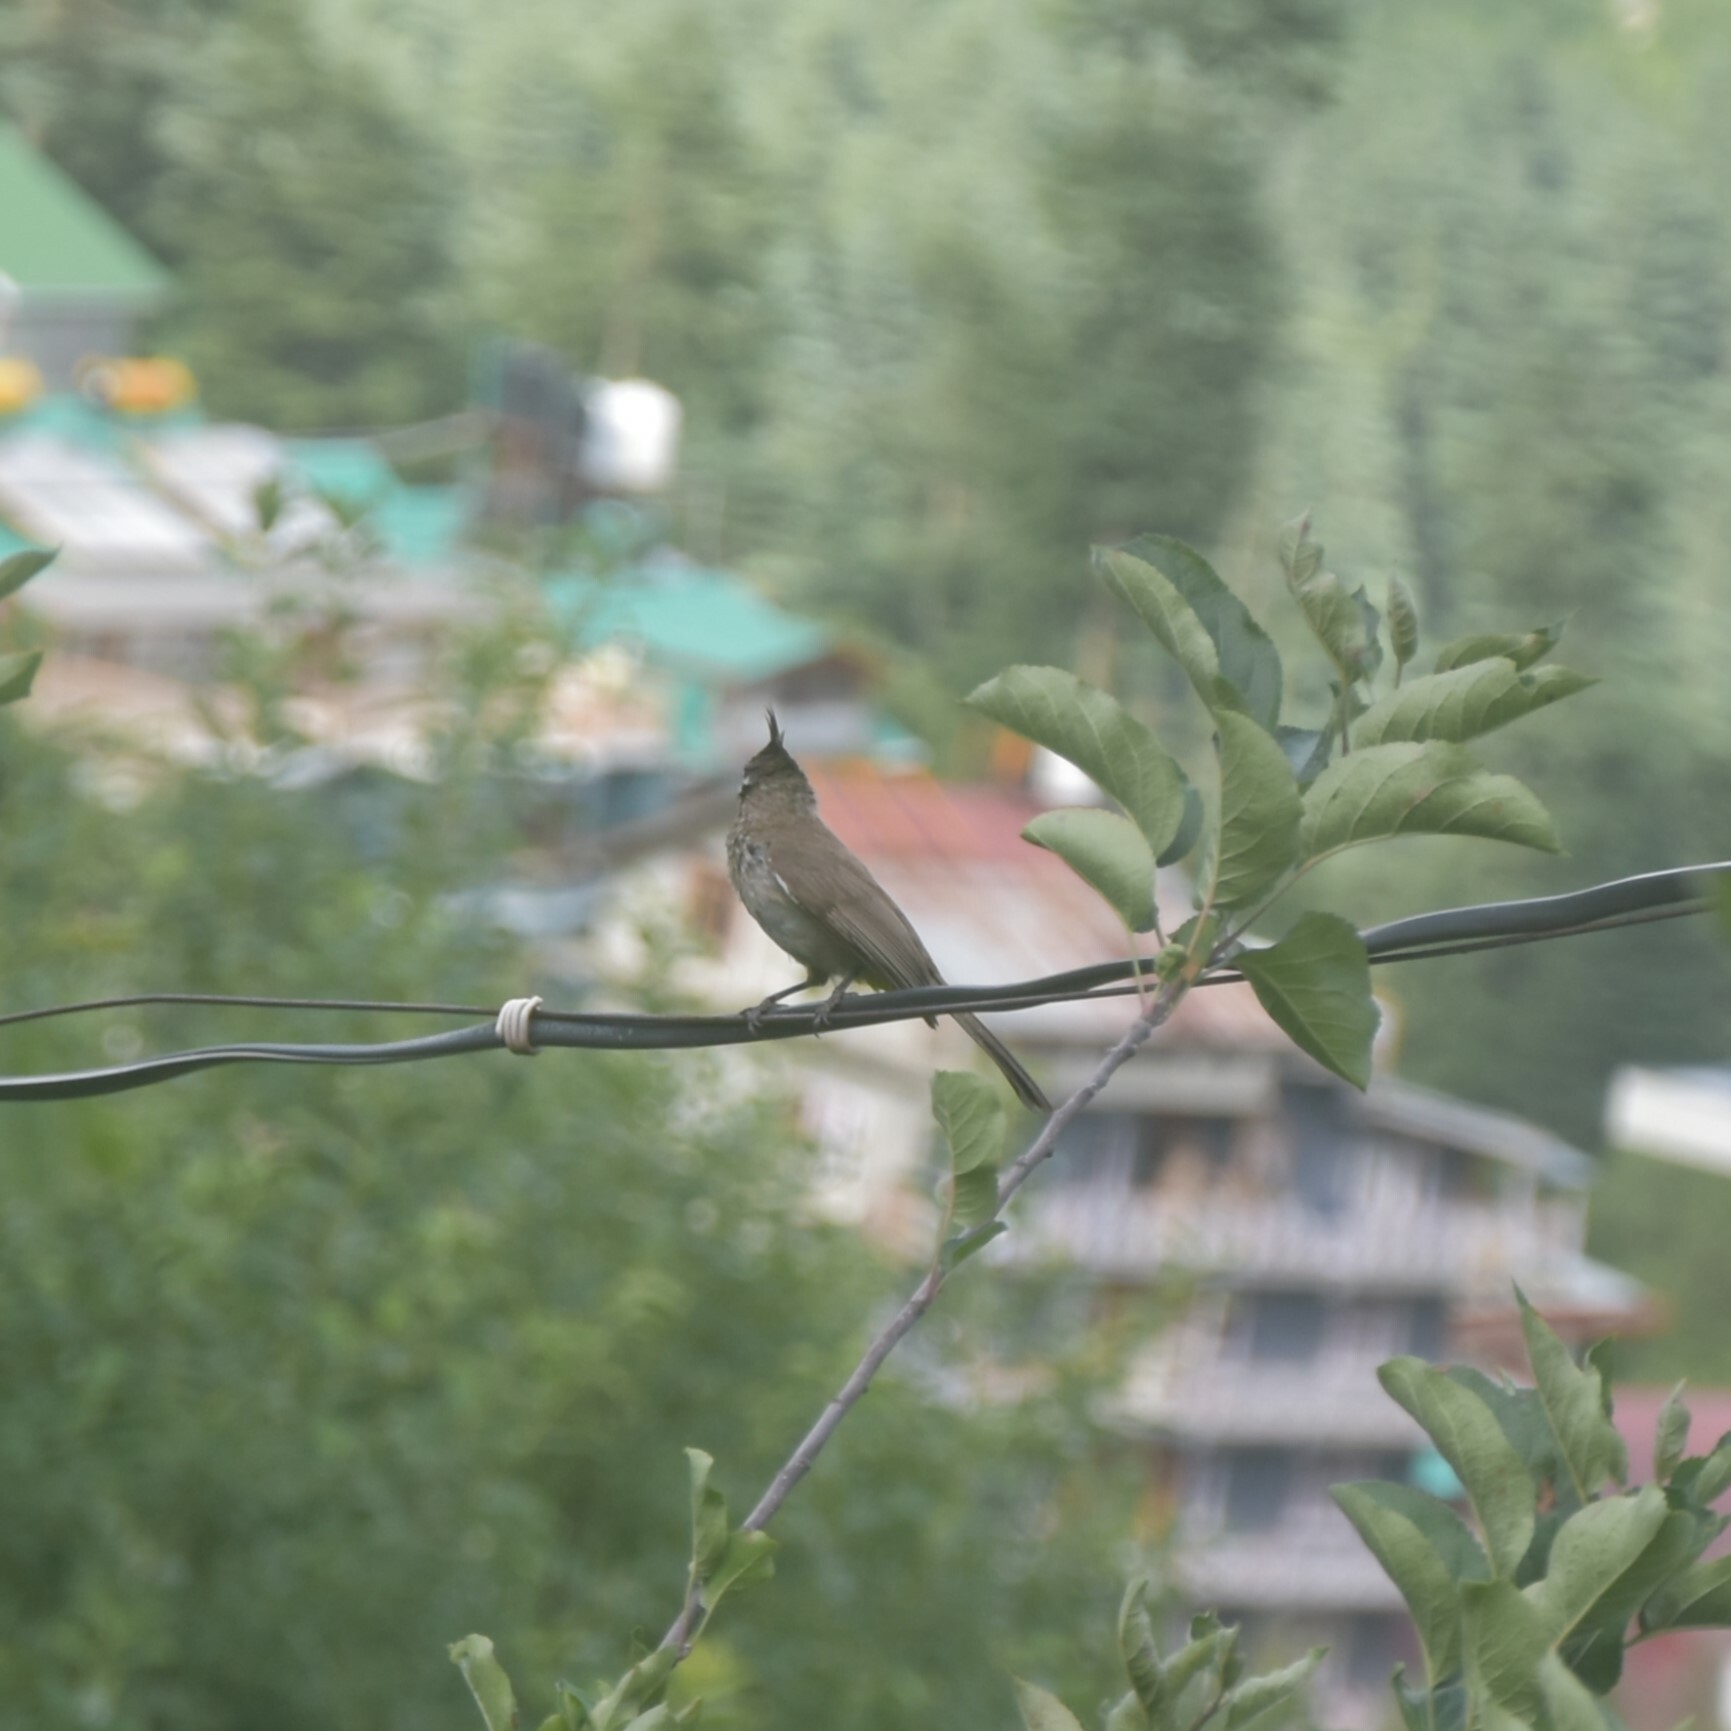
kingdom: Animalia
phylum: Chordata
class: Aves
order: Passeriformes
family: Pycnonotidae
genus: Pycnonotus
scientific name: Pycnonotus leucogenys
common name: Himalayan bulbul
